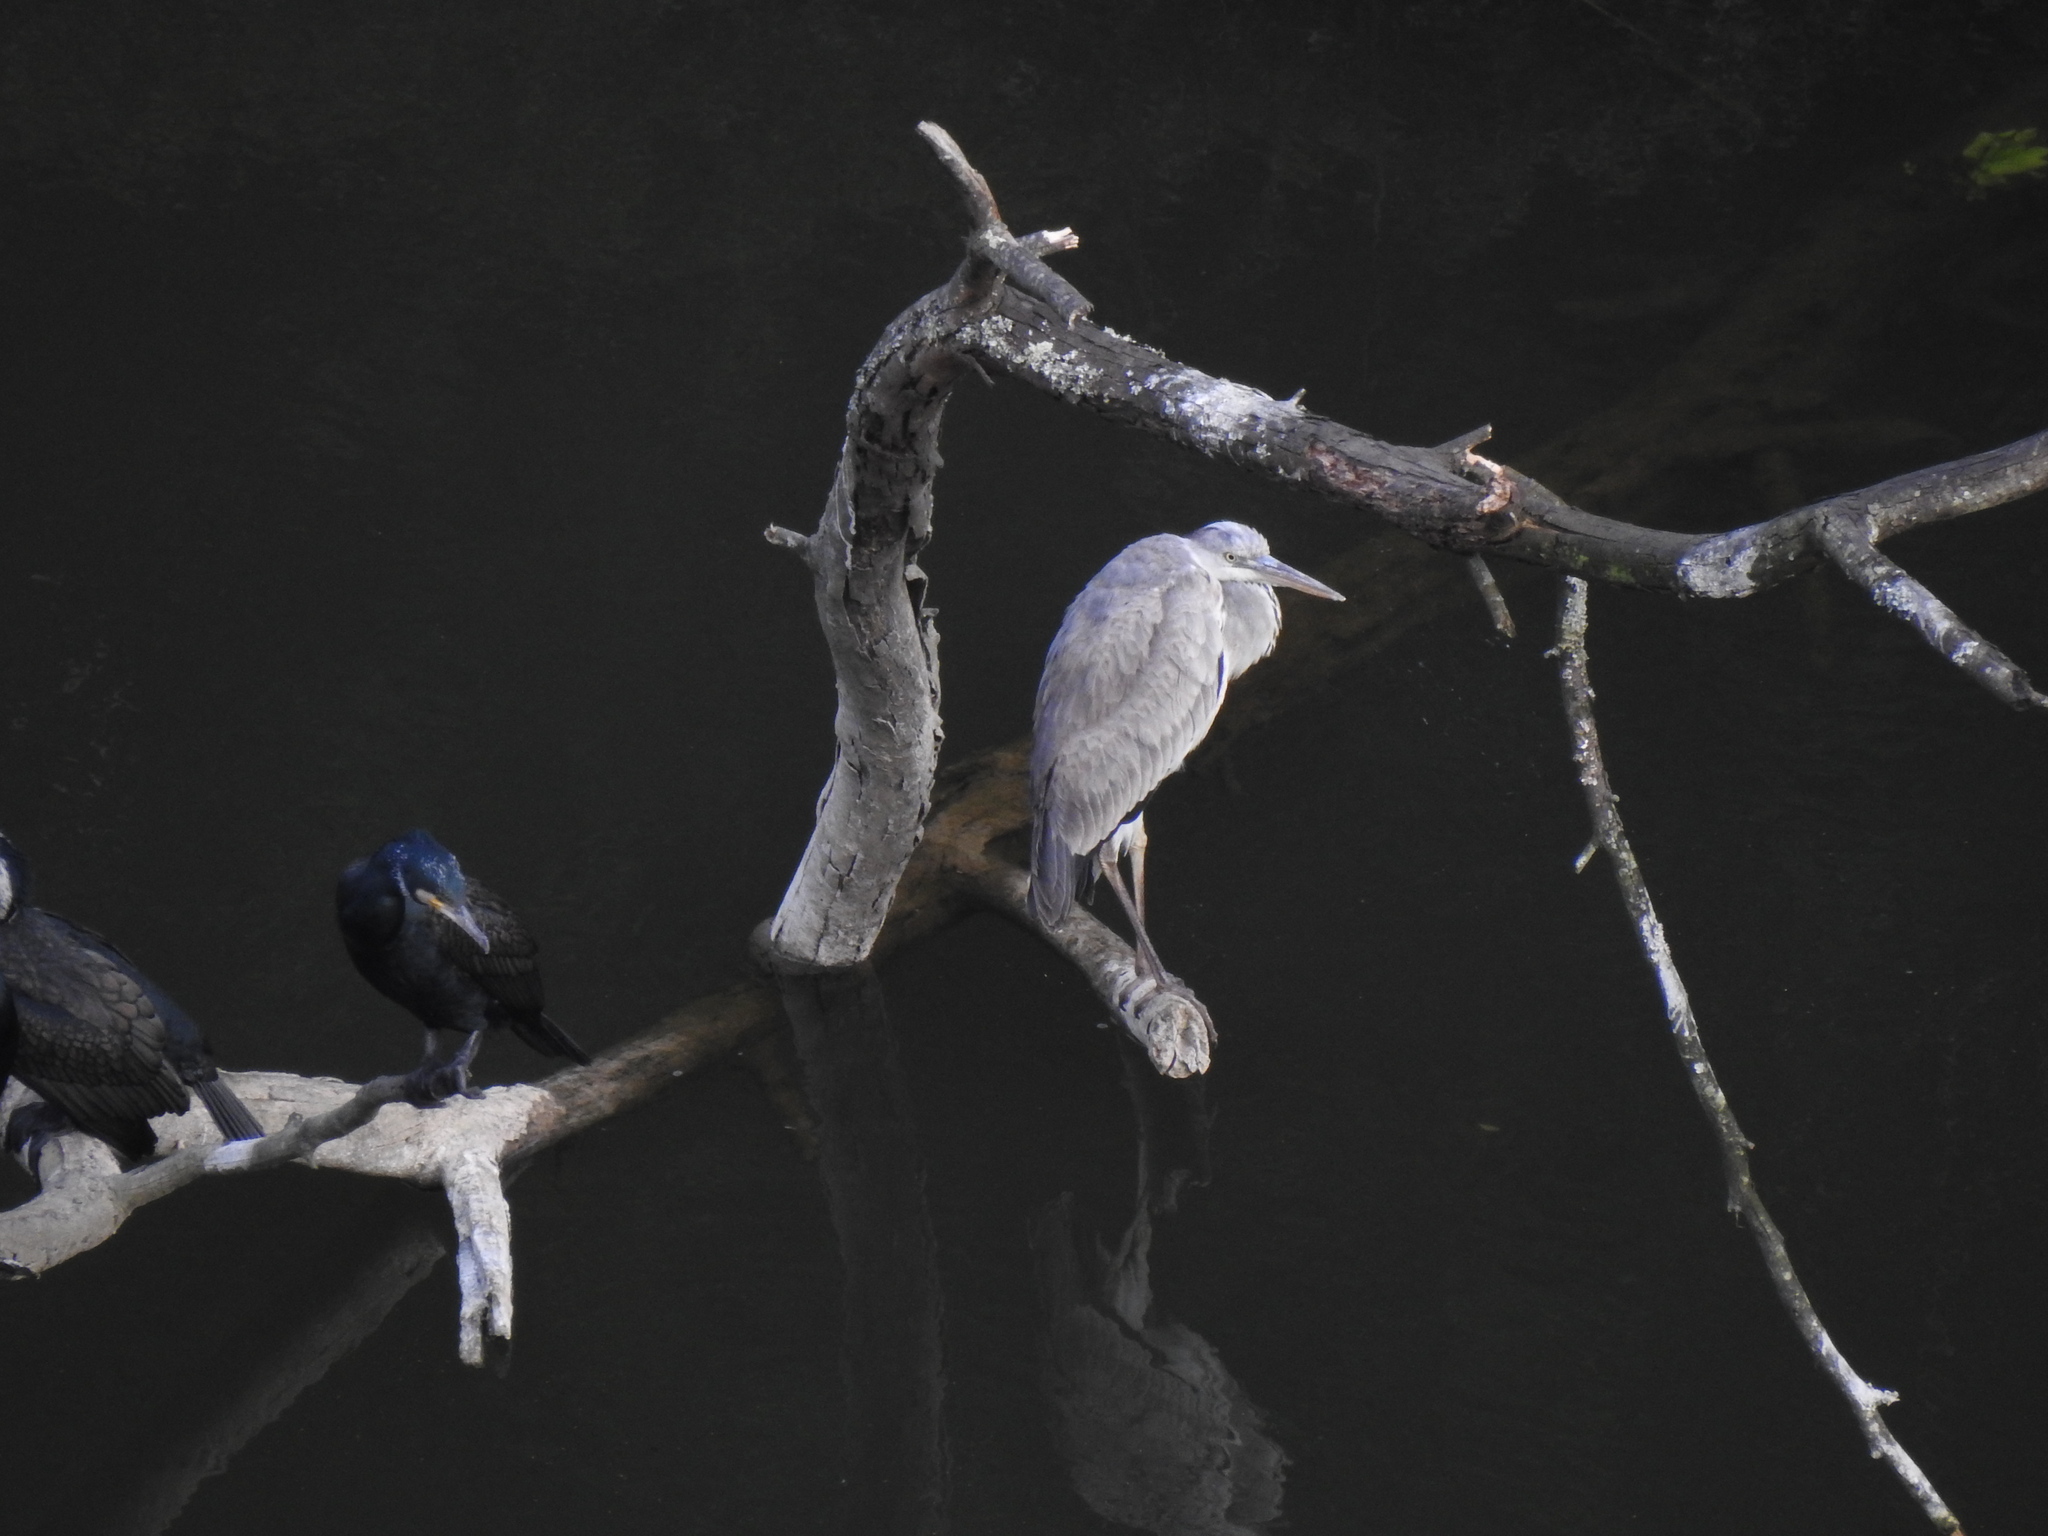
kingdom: Animalia
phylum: Chordata
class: Aves
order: Pelecaniformes
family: Ardeidae
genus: Ardea
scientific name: Ardea cinerea
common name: Grey heron
